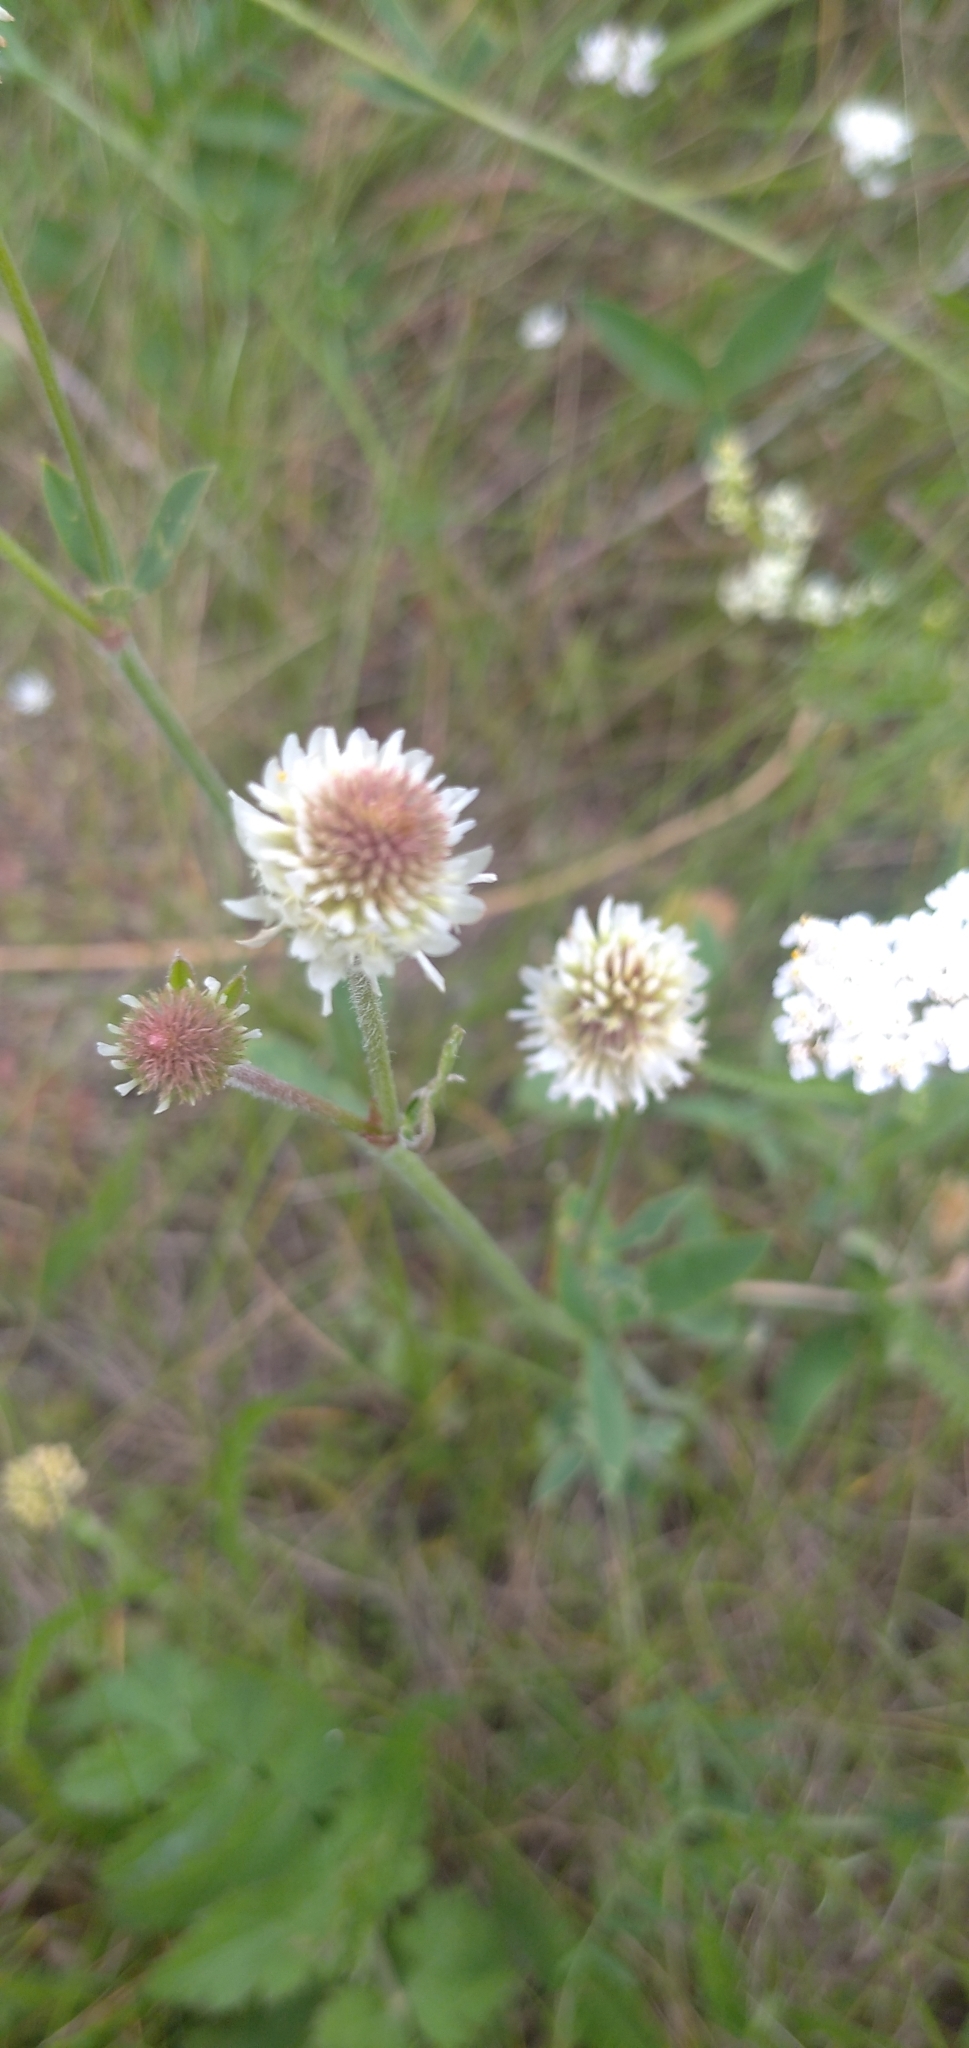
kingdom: Plantae
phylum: Tracheophyta
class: Magnoliopsida
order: Fabales
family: Fabaceae
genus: Trifolium
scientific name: Trifolium montanum
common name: Mountain clover
